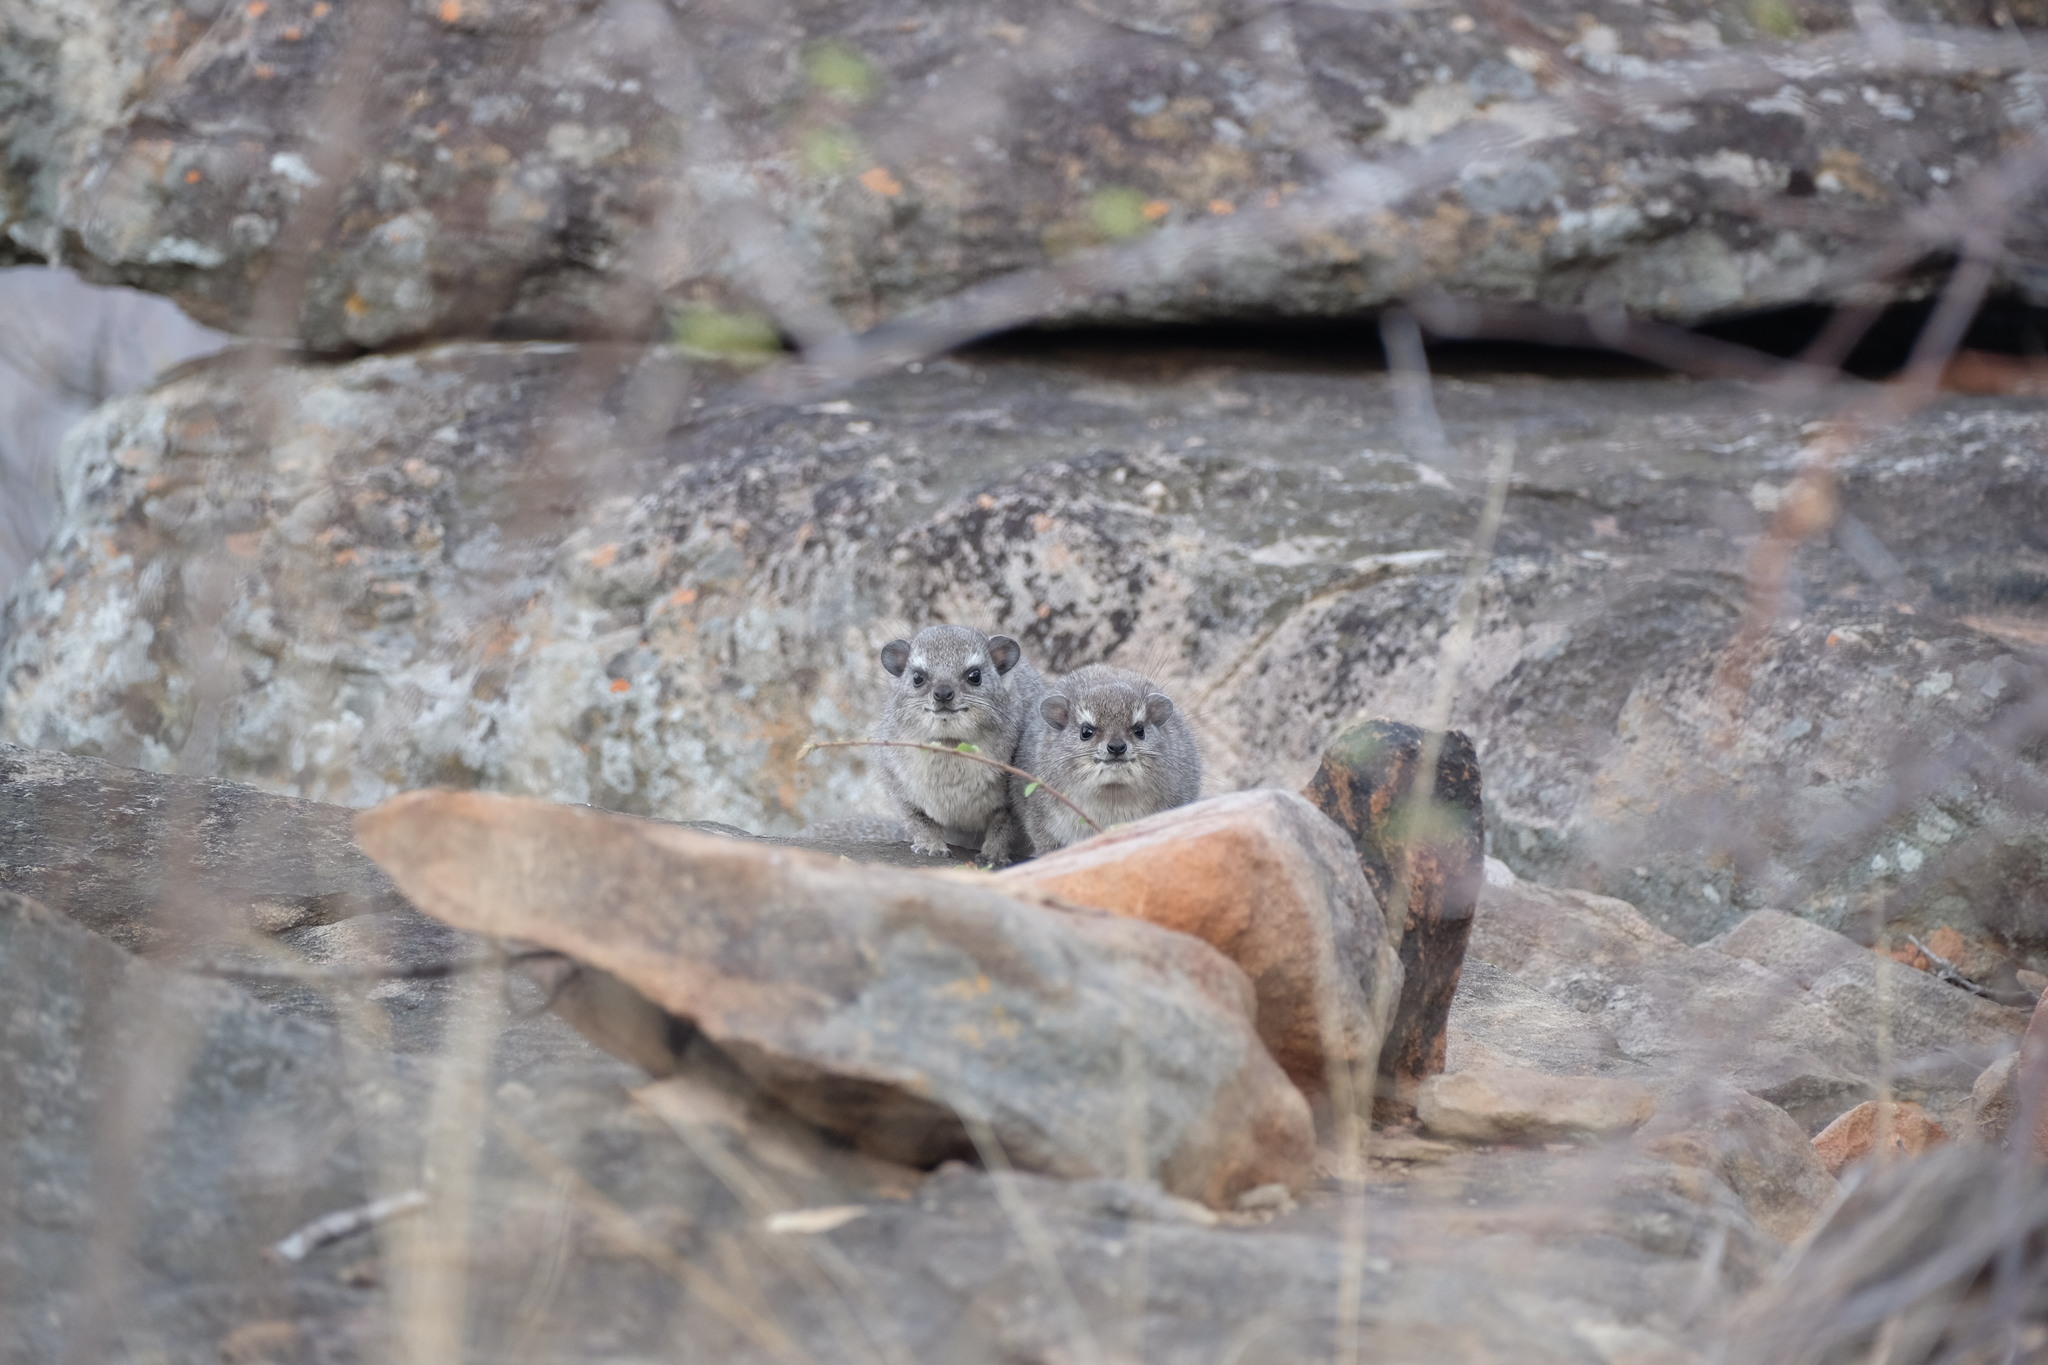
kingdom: Animalia
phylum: Chordata
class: Mammalia
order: Hyracoidea
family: Procaviidae
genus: Procavia
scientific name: Procavia capensis
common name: Rock hyrax
